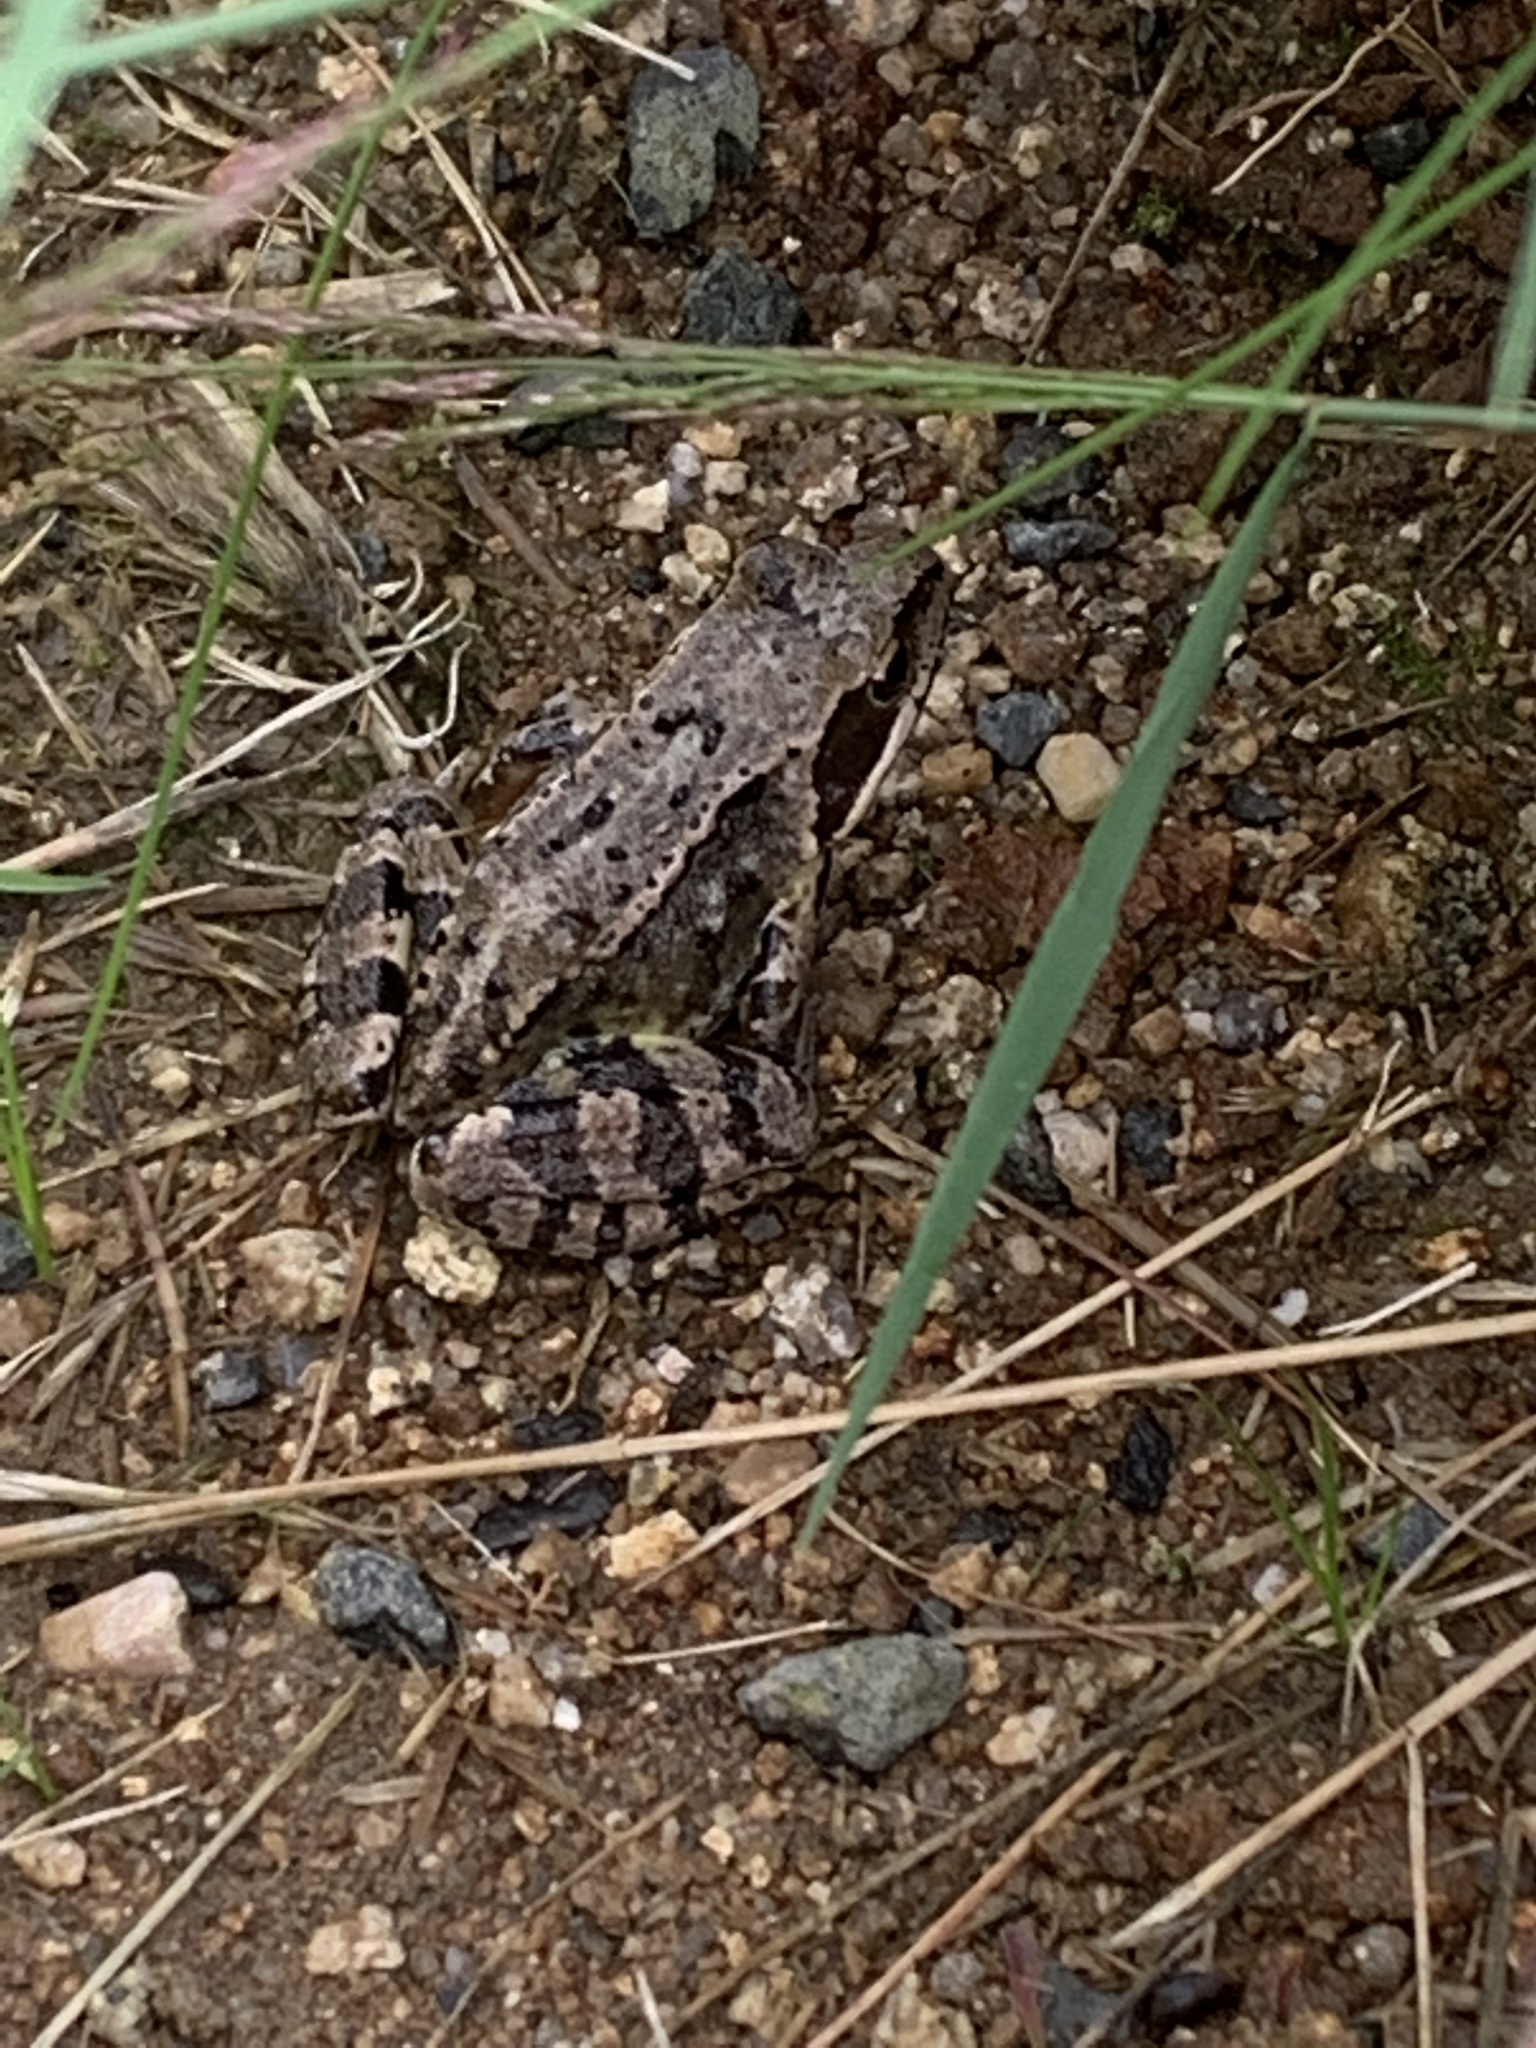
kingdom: Animalia
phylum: Chordata
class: Amphibia
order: Anura
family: Ranidae
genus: Rana
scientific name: Rana temporaria
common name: Common frog
